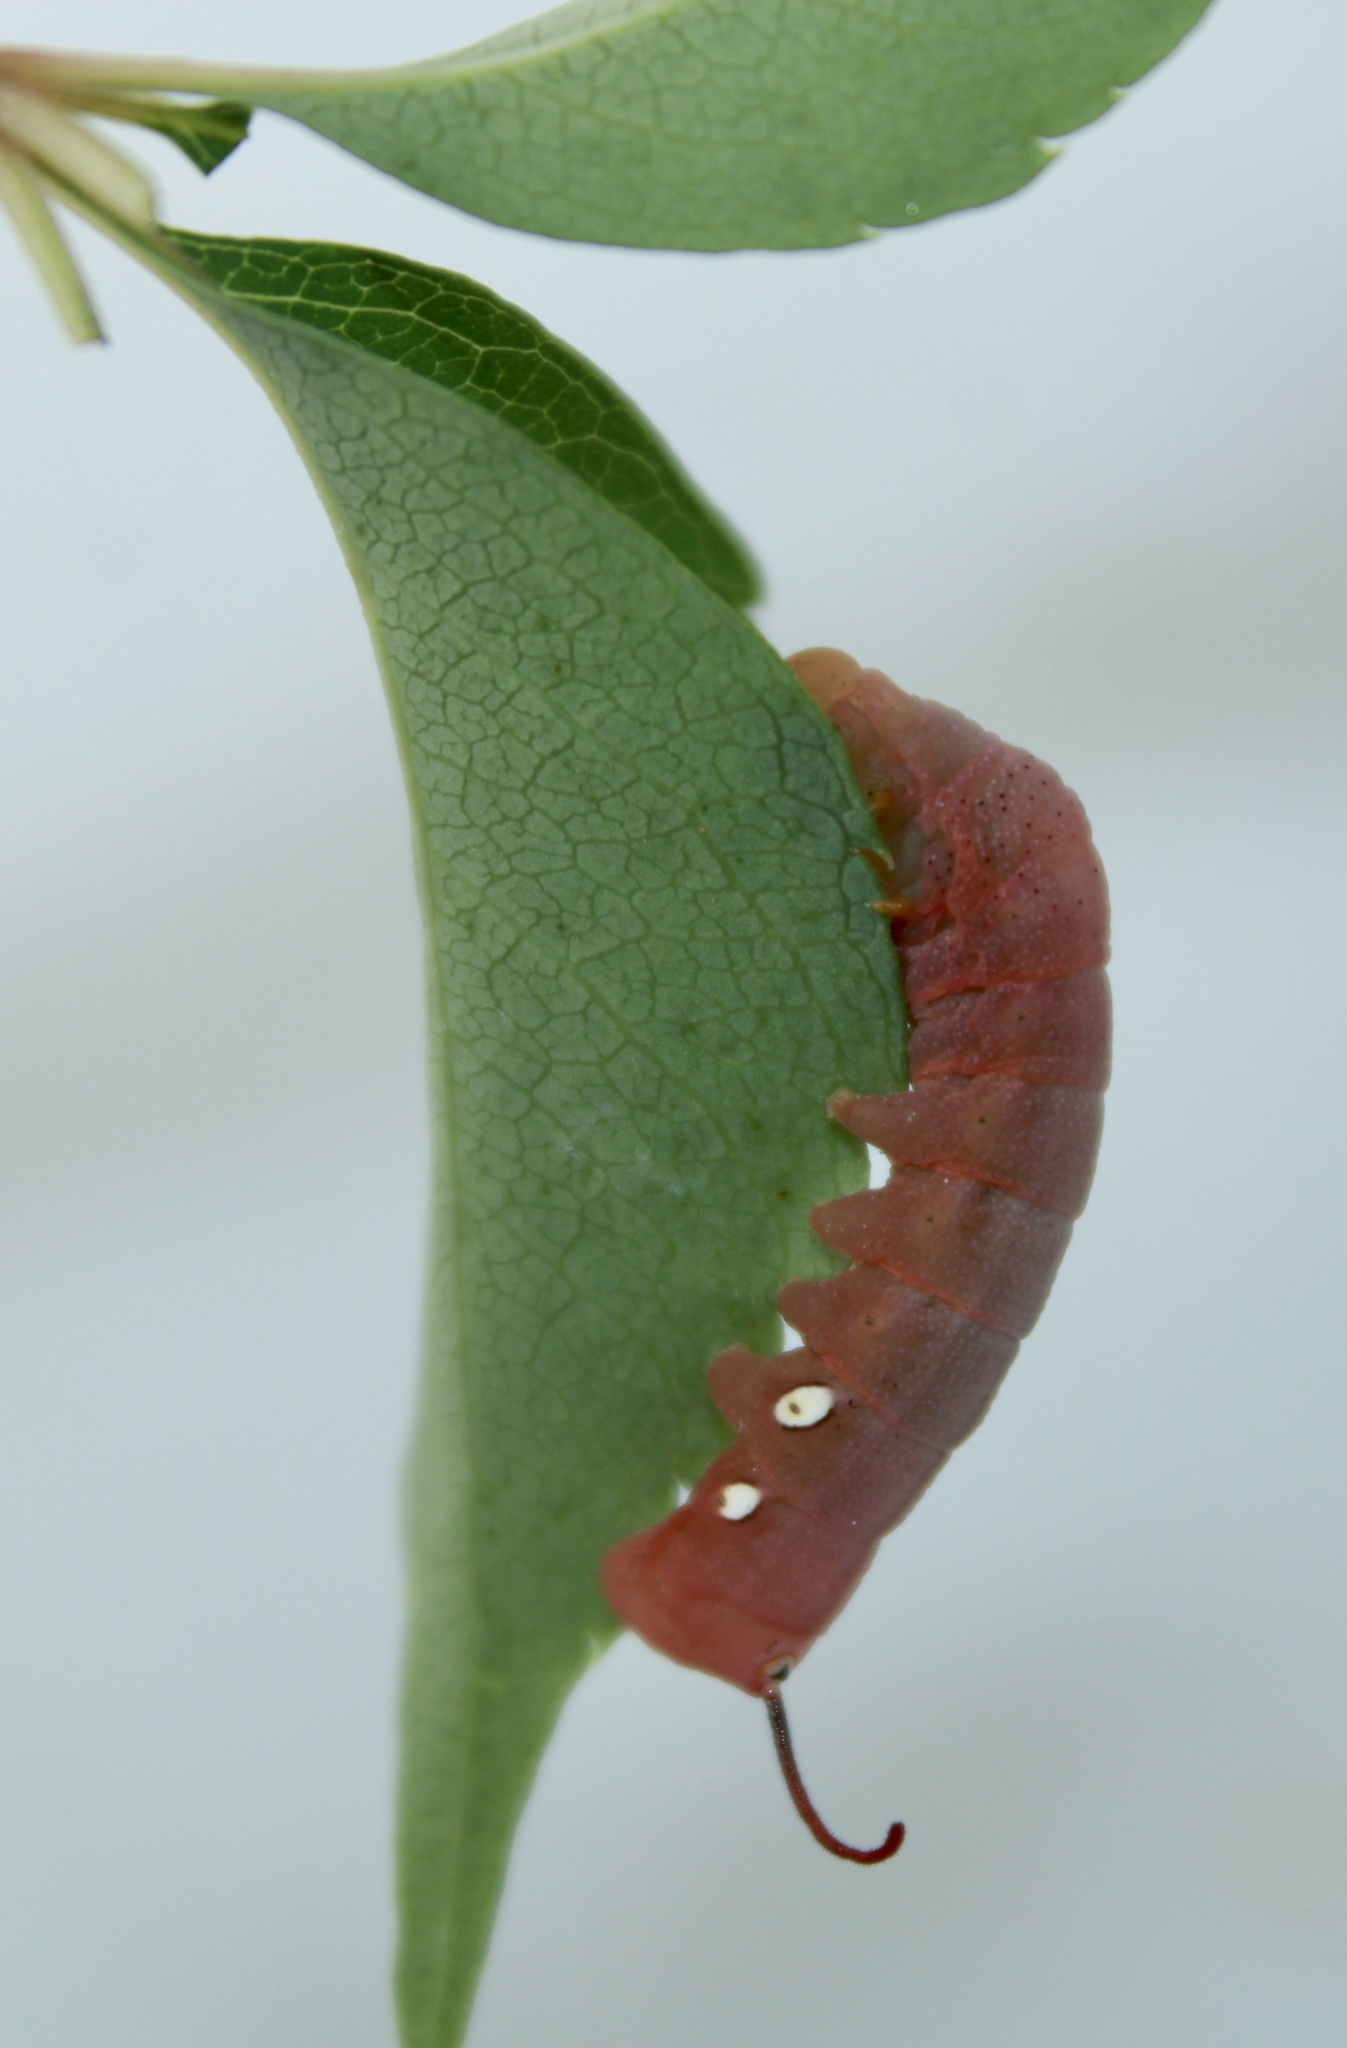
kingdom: Animalia
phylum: Arthropoda
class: Insecta
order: Lepidoptera
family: Sphingidae
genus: Eumorpha
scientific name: Eumorpha pandorus
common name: Pandora sphinx
